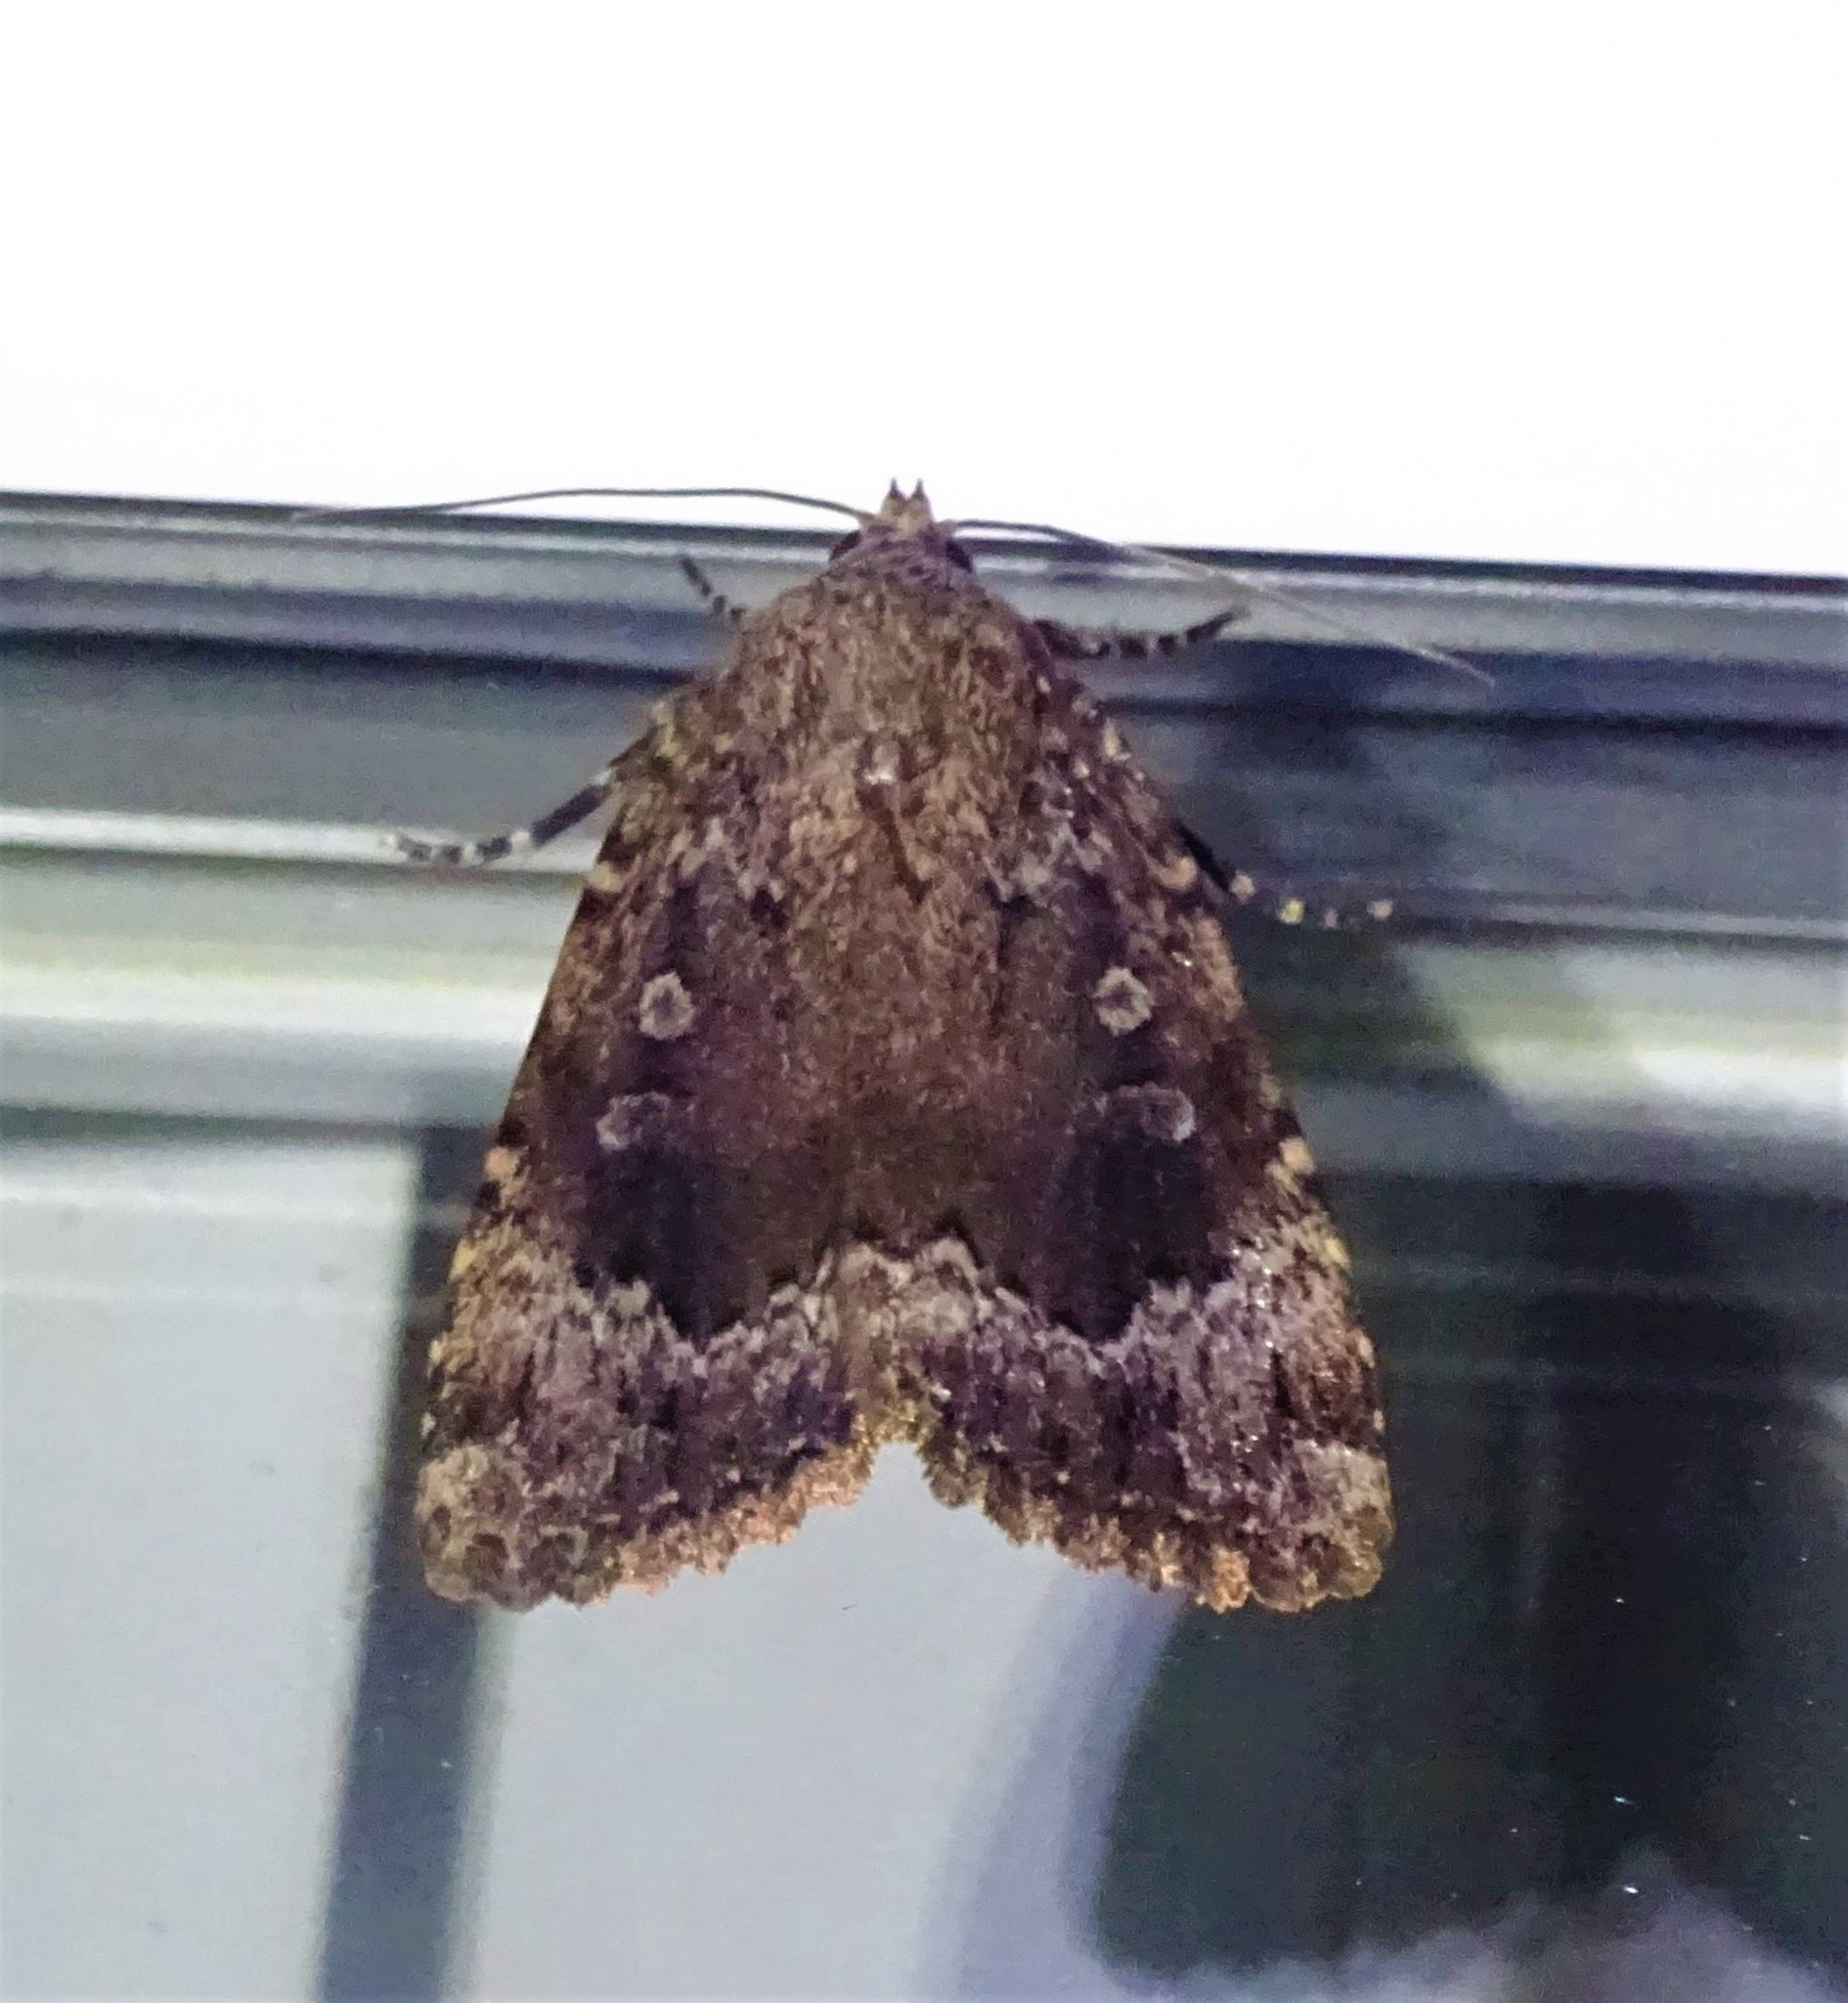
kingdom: Animalia
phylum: Arthropoda
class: Insecta
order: Lepidoptera
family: Noctuidae
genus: Amphipyra
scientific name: Amphipyra pyramidoides
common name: American copper underwing
